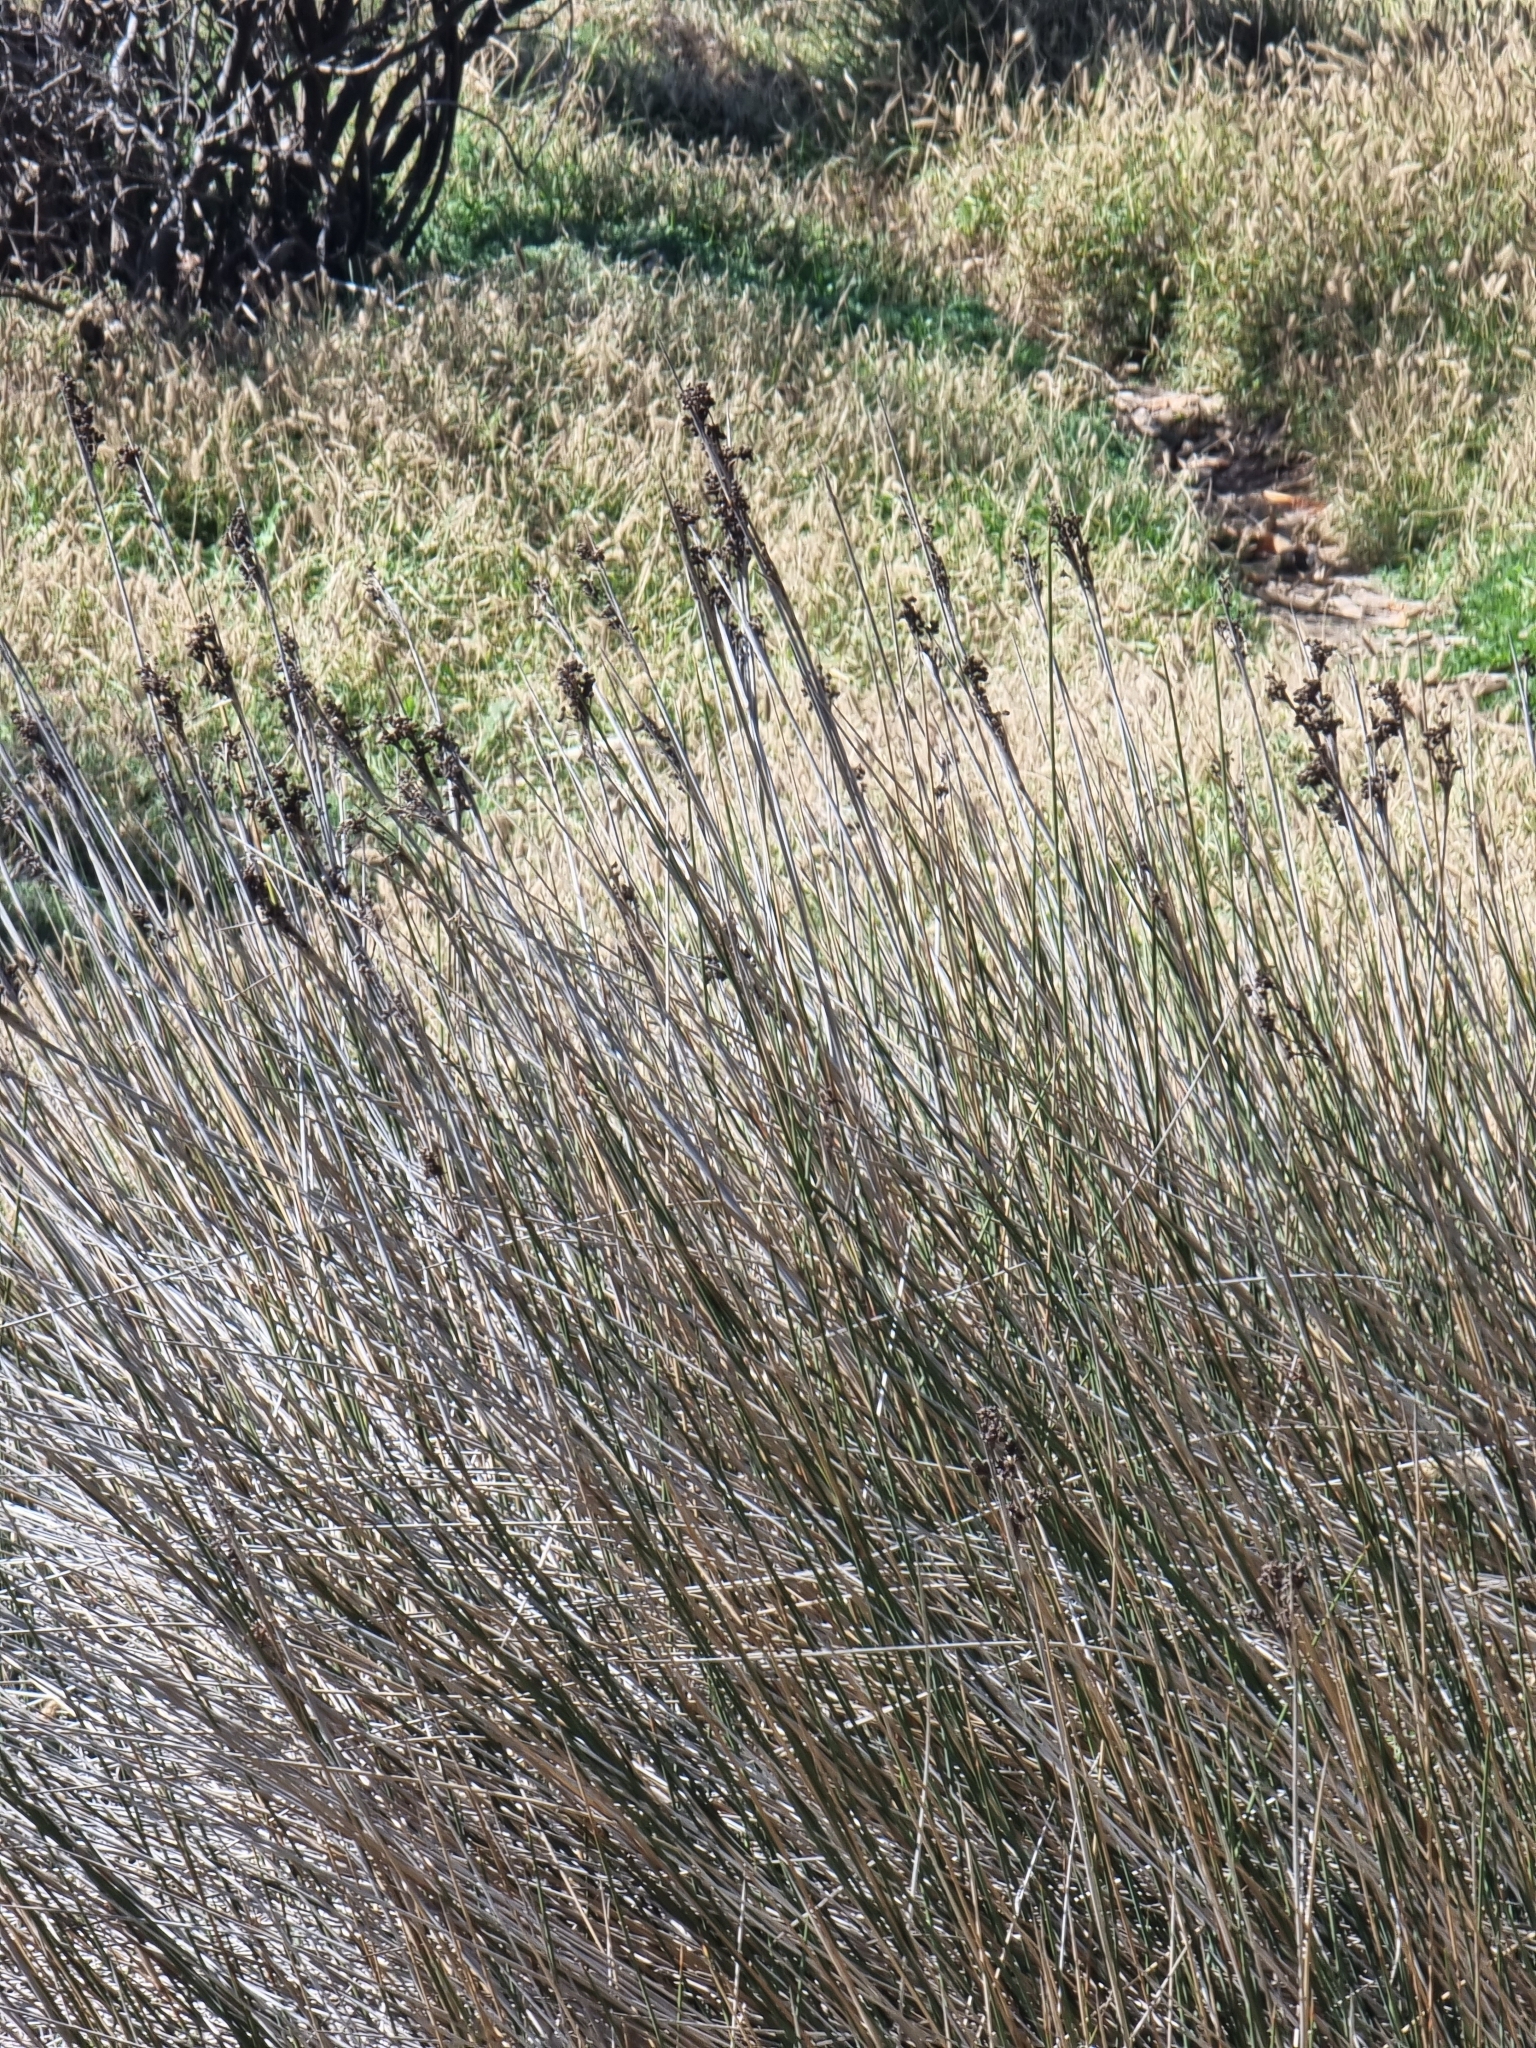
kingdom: Plantae
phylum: Tracheophyta
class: Liliopsida
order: Poales
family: Juncaceae
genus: Juncus
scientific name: Juncus acutus
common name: Sharp rush
